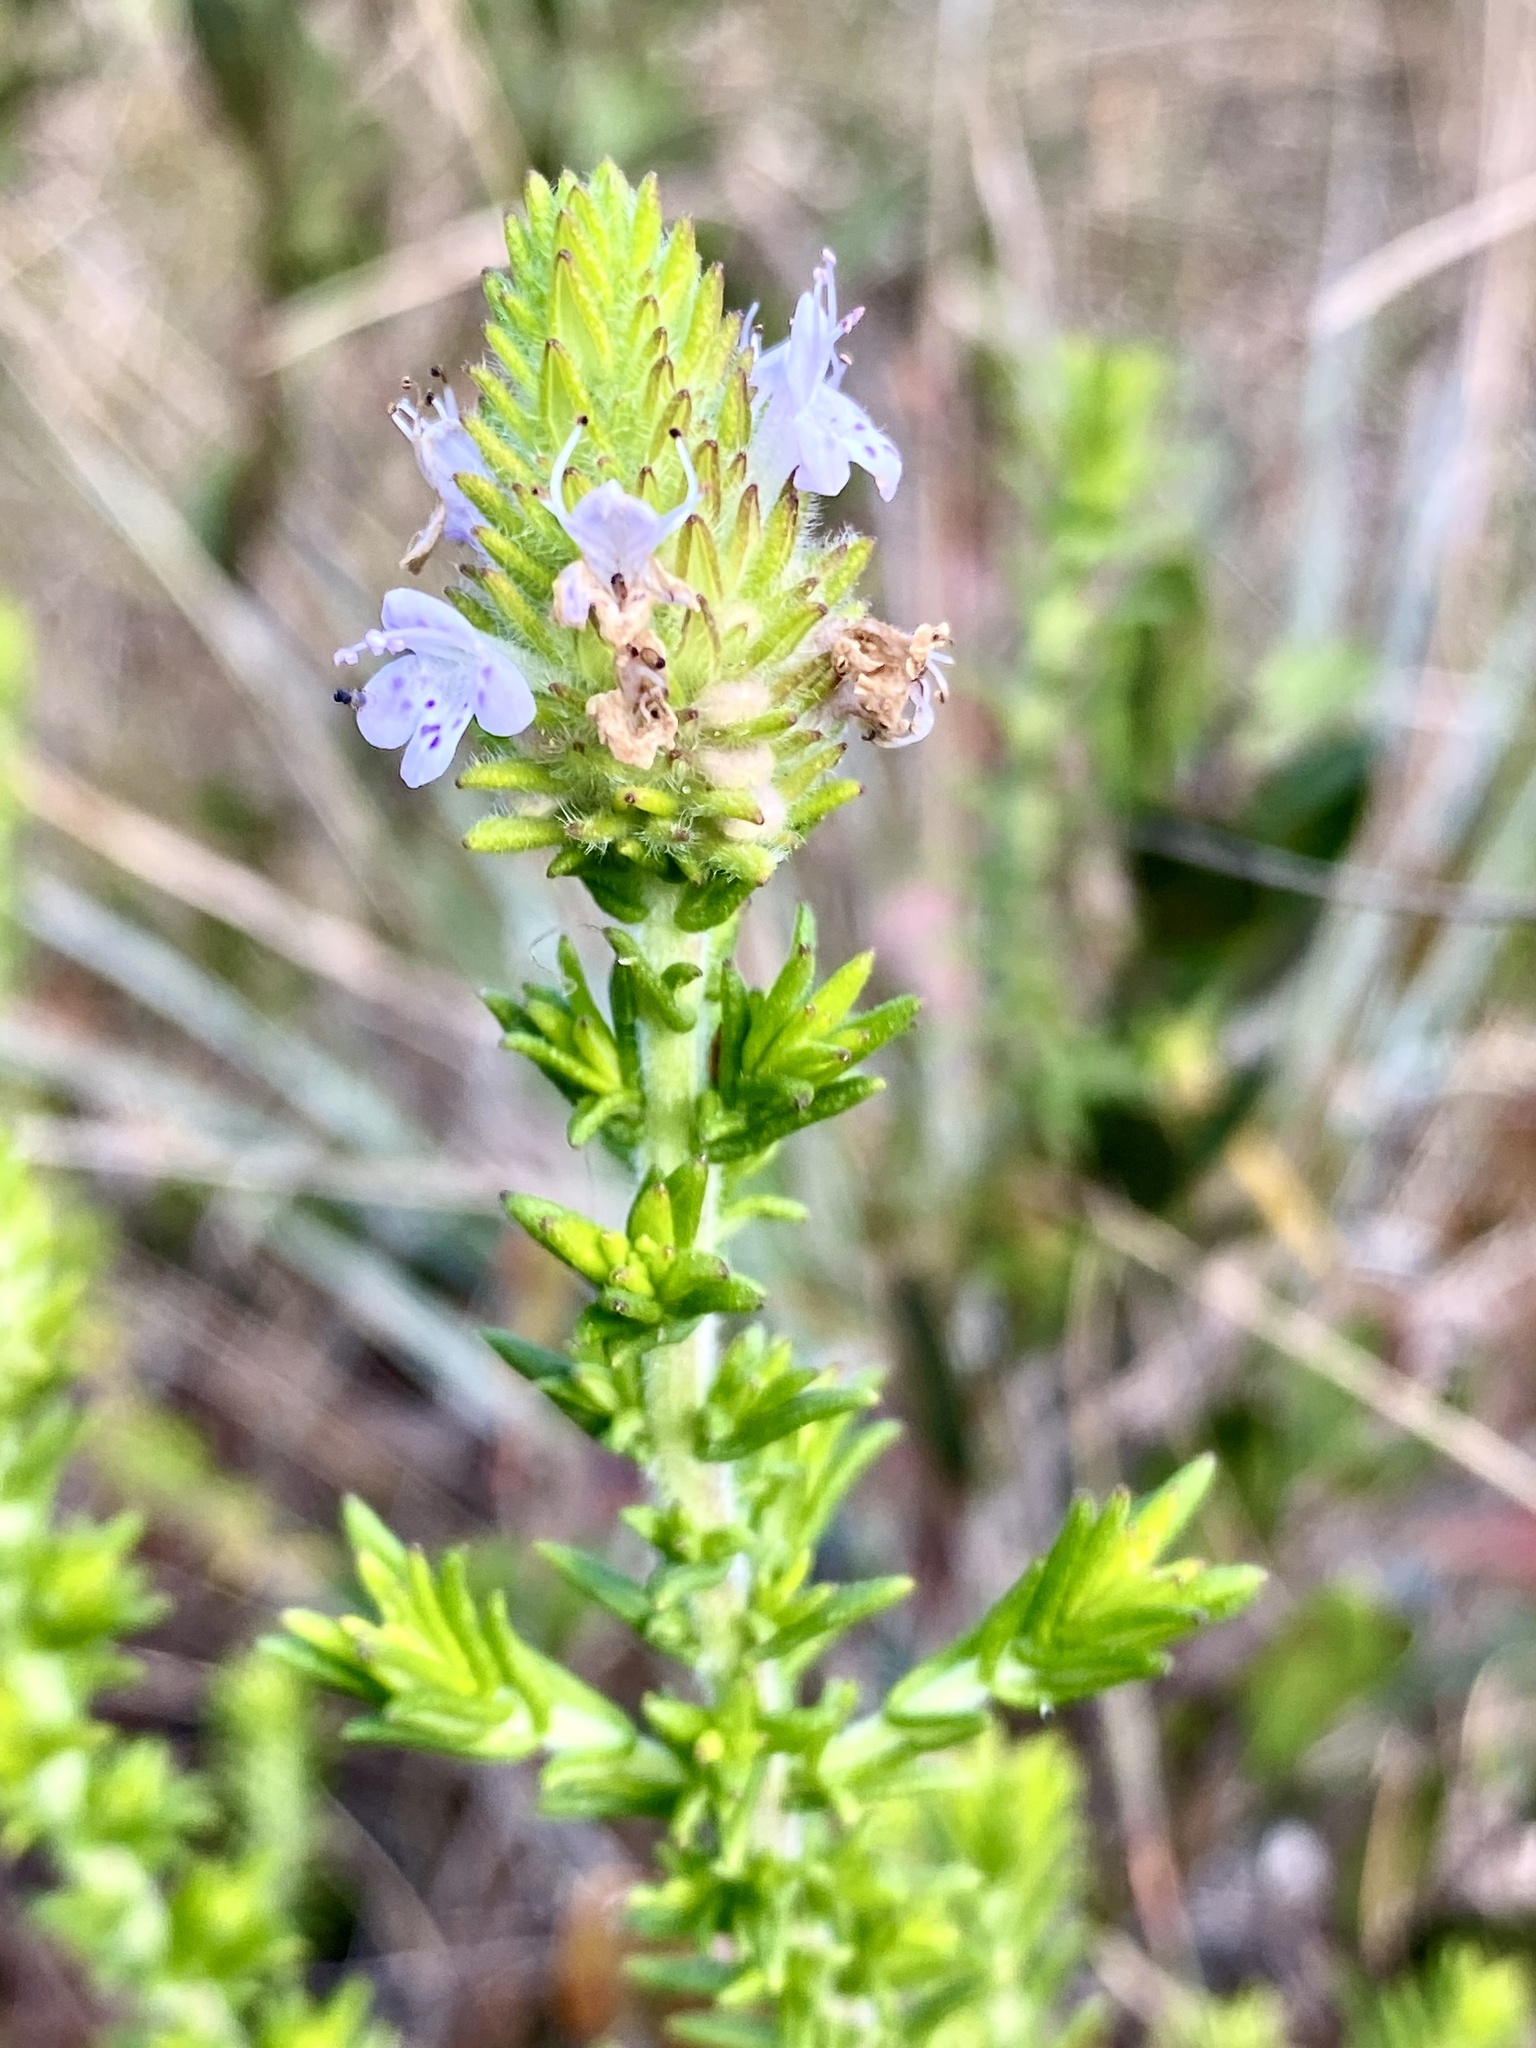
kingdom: Plantae
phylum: Tracheophyta
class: Magnoliopsida
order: Lamiales
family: Lamiaceae
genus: Piloblephis
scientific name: Piloblephis rigida
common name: Wild pennyroyal
